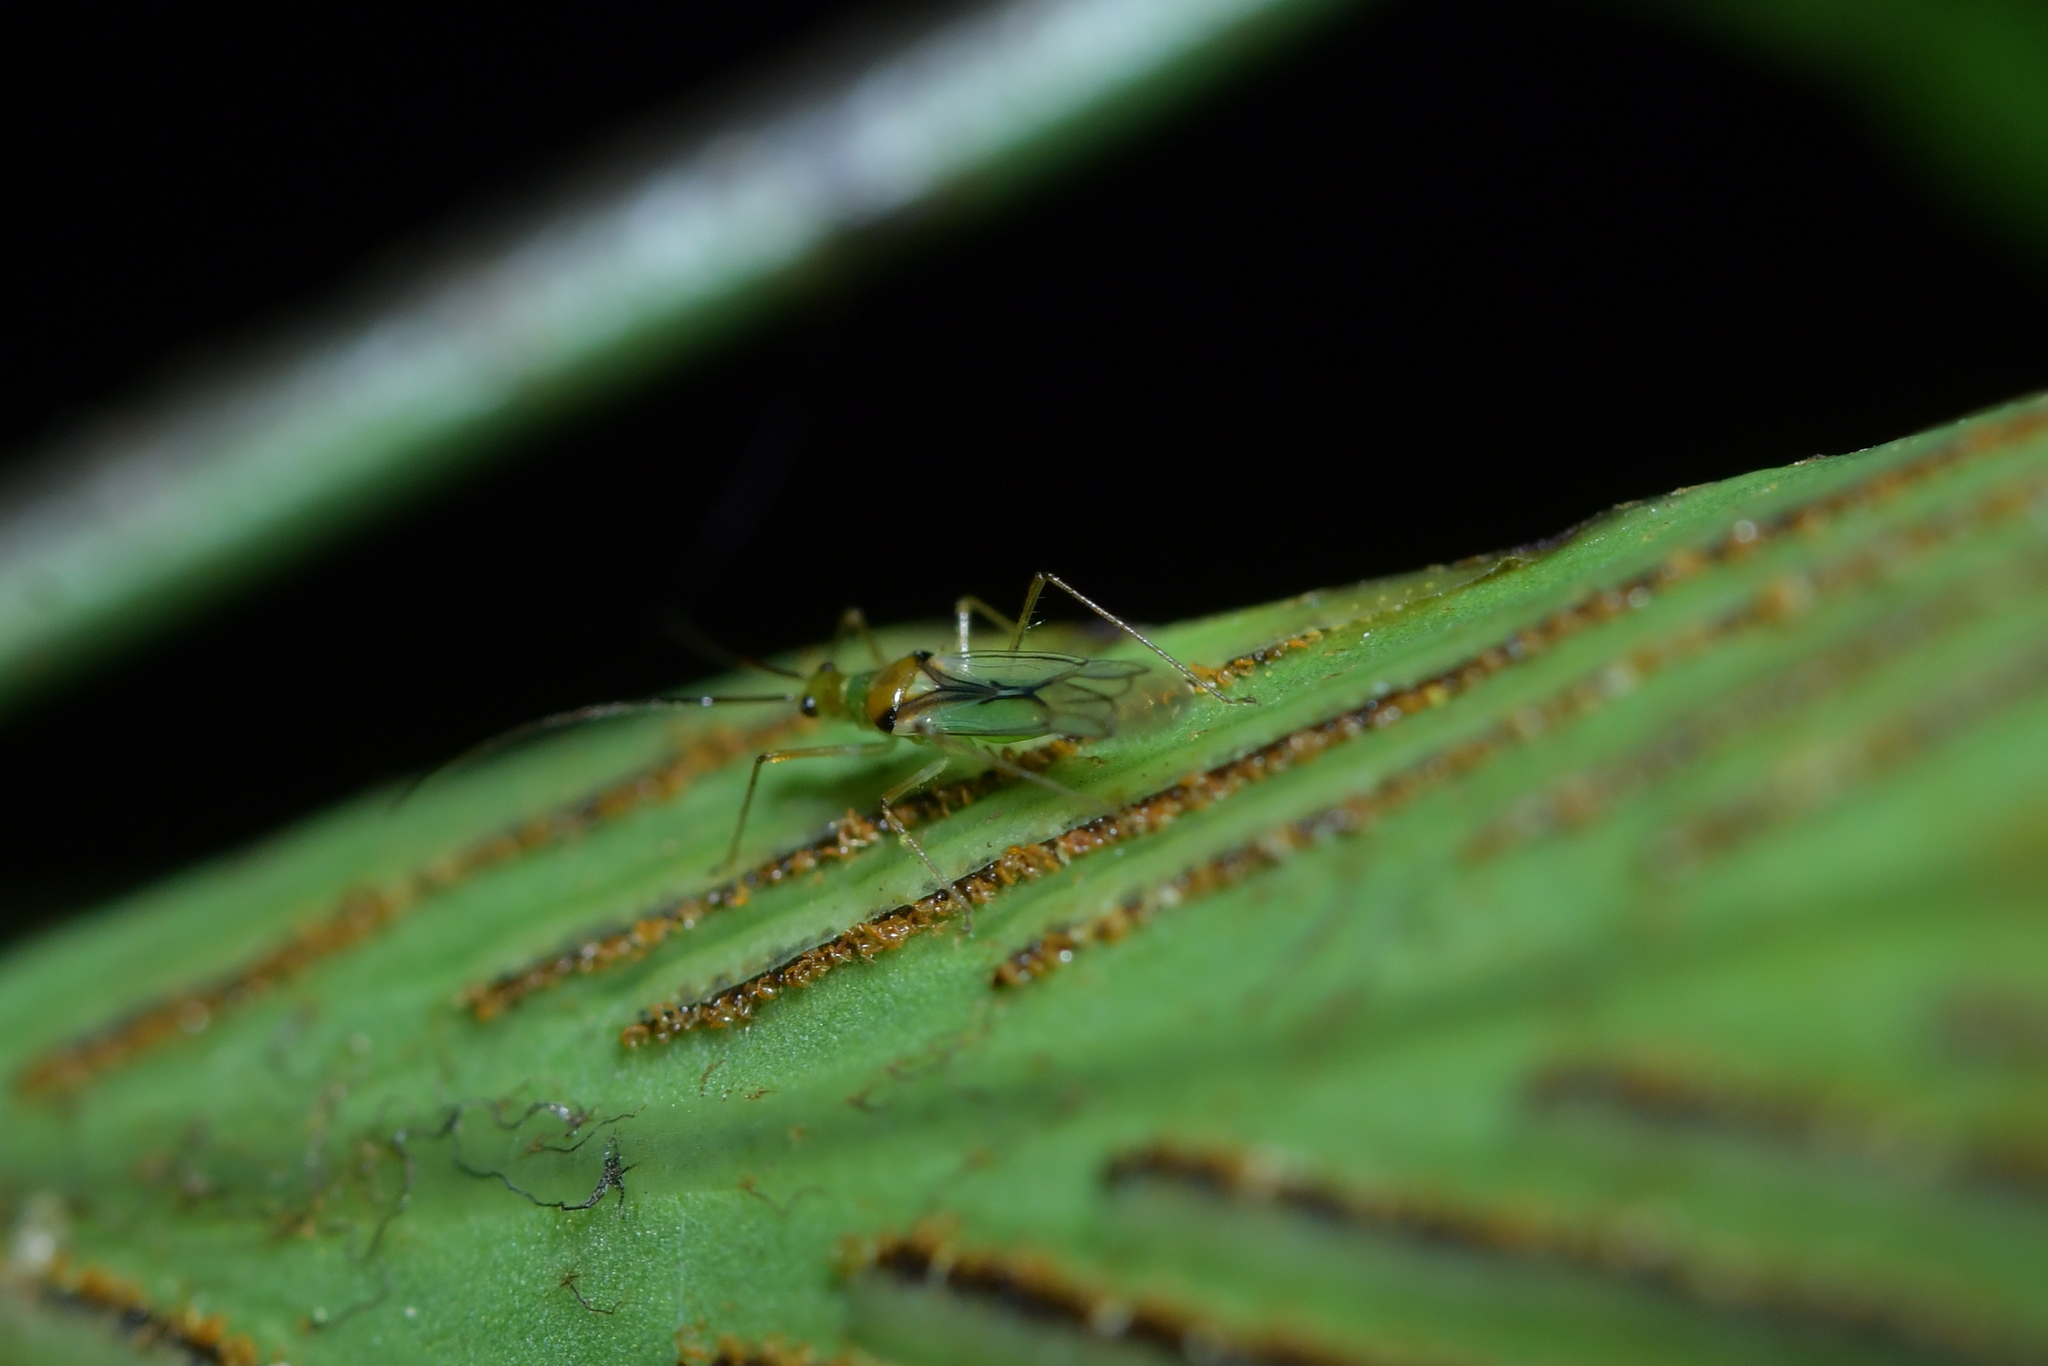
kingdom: Animalia
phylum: Arthropoda
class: Insecta
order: Hemiptera
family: Miridae
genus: Felisacus
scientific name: Felisacus elegantulus
